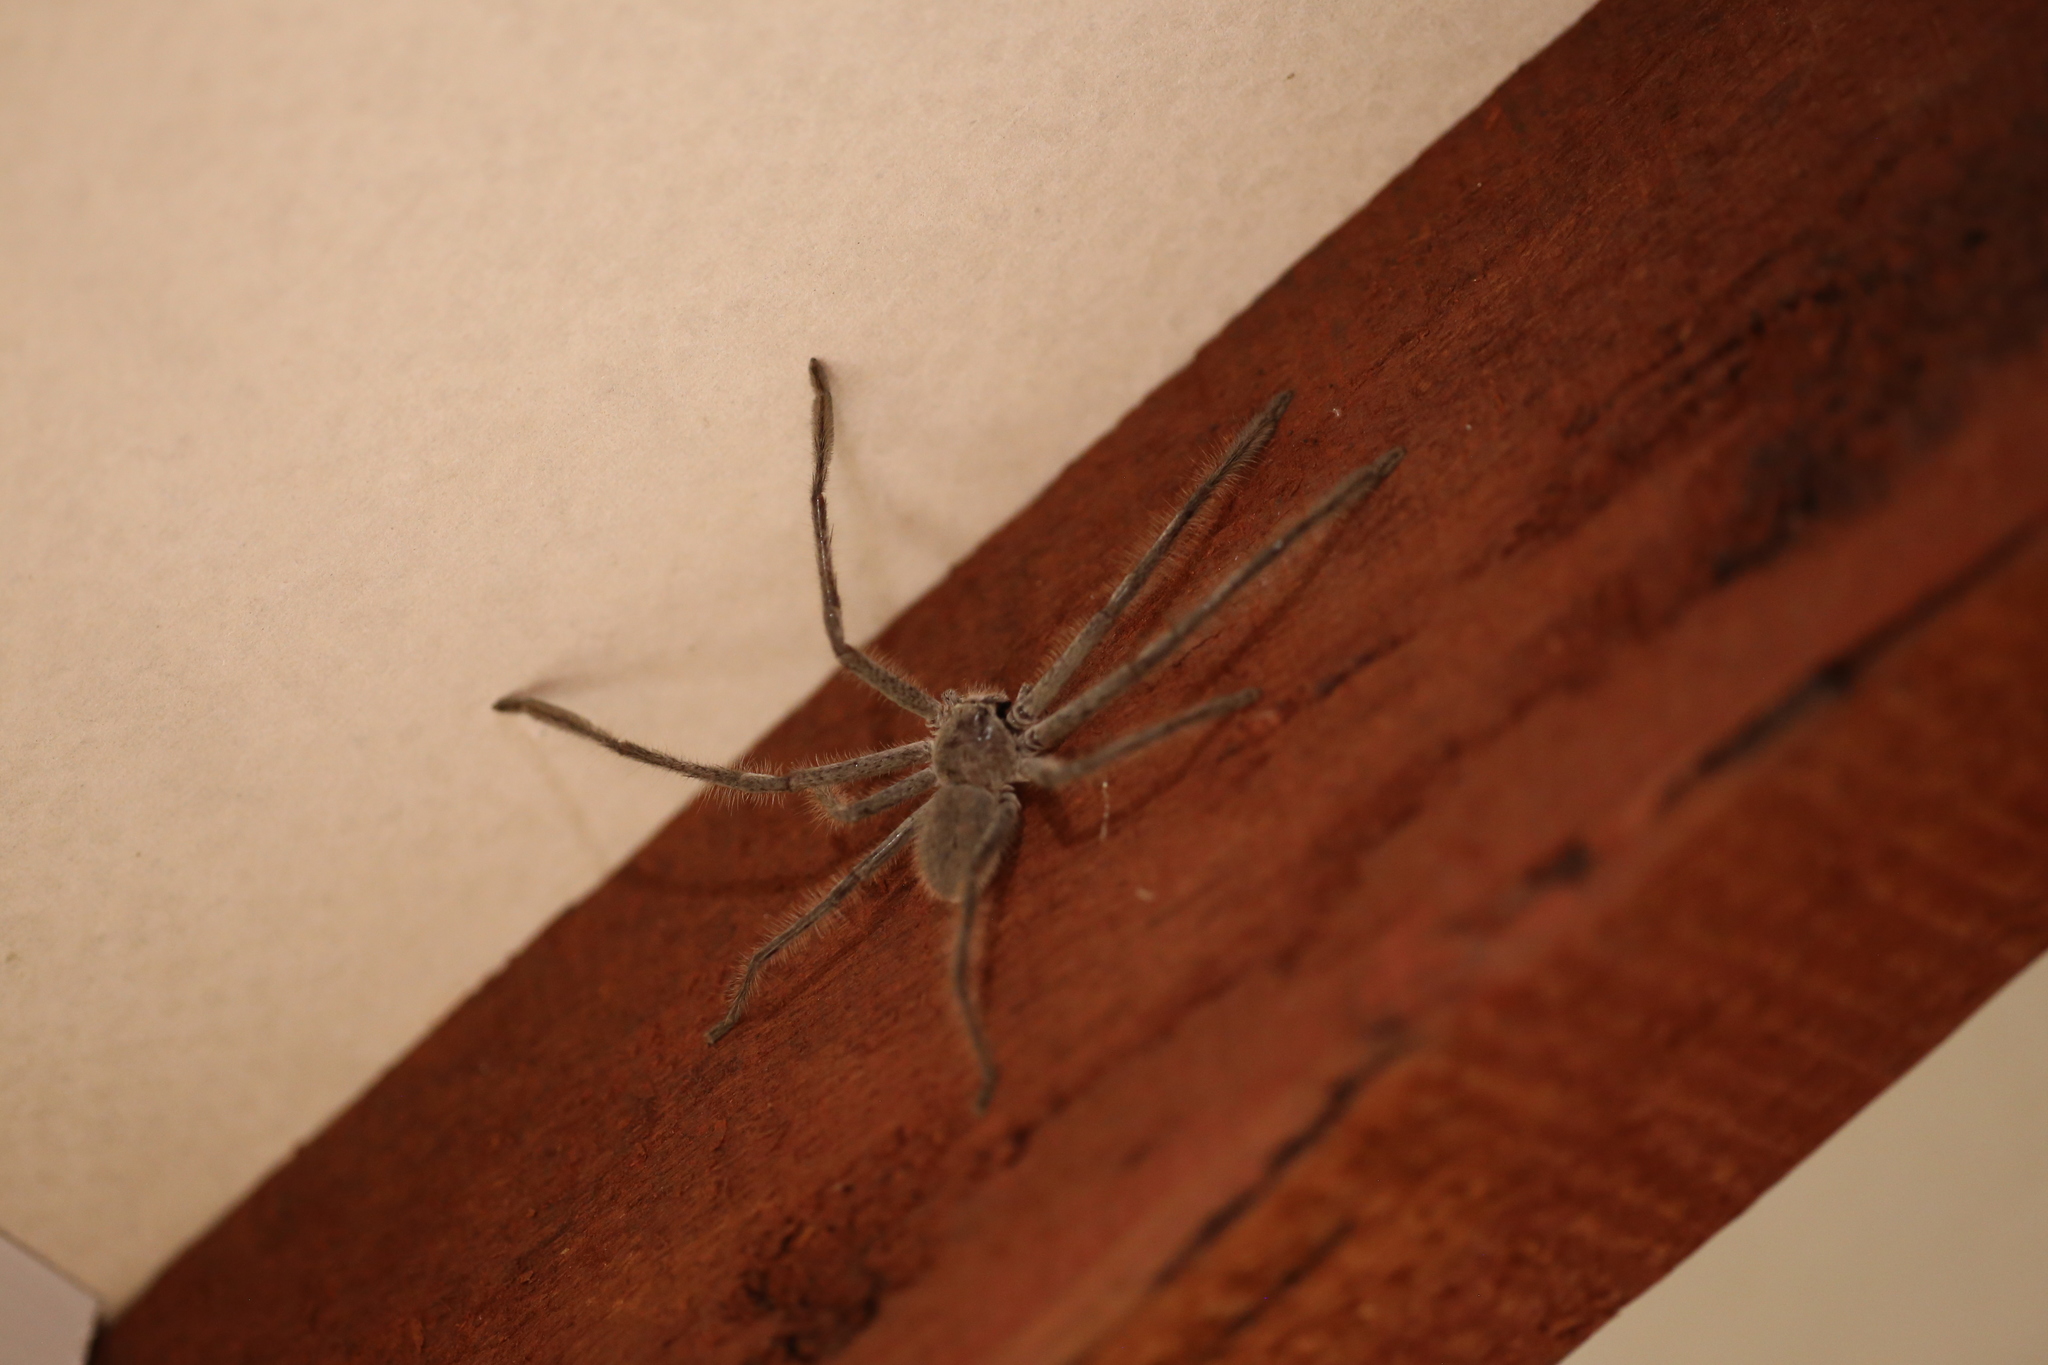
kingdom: Animalia
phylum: Arthropoda
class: Arachnida
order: Araneae
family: Sparassidae
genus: Isopedella
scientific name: Isopedella cana
